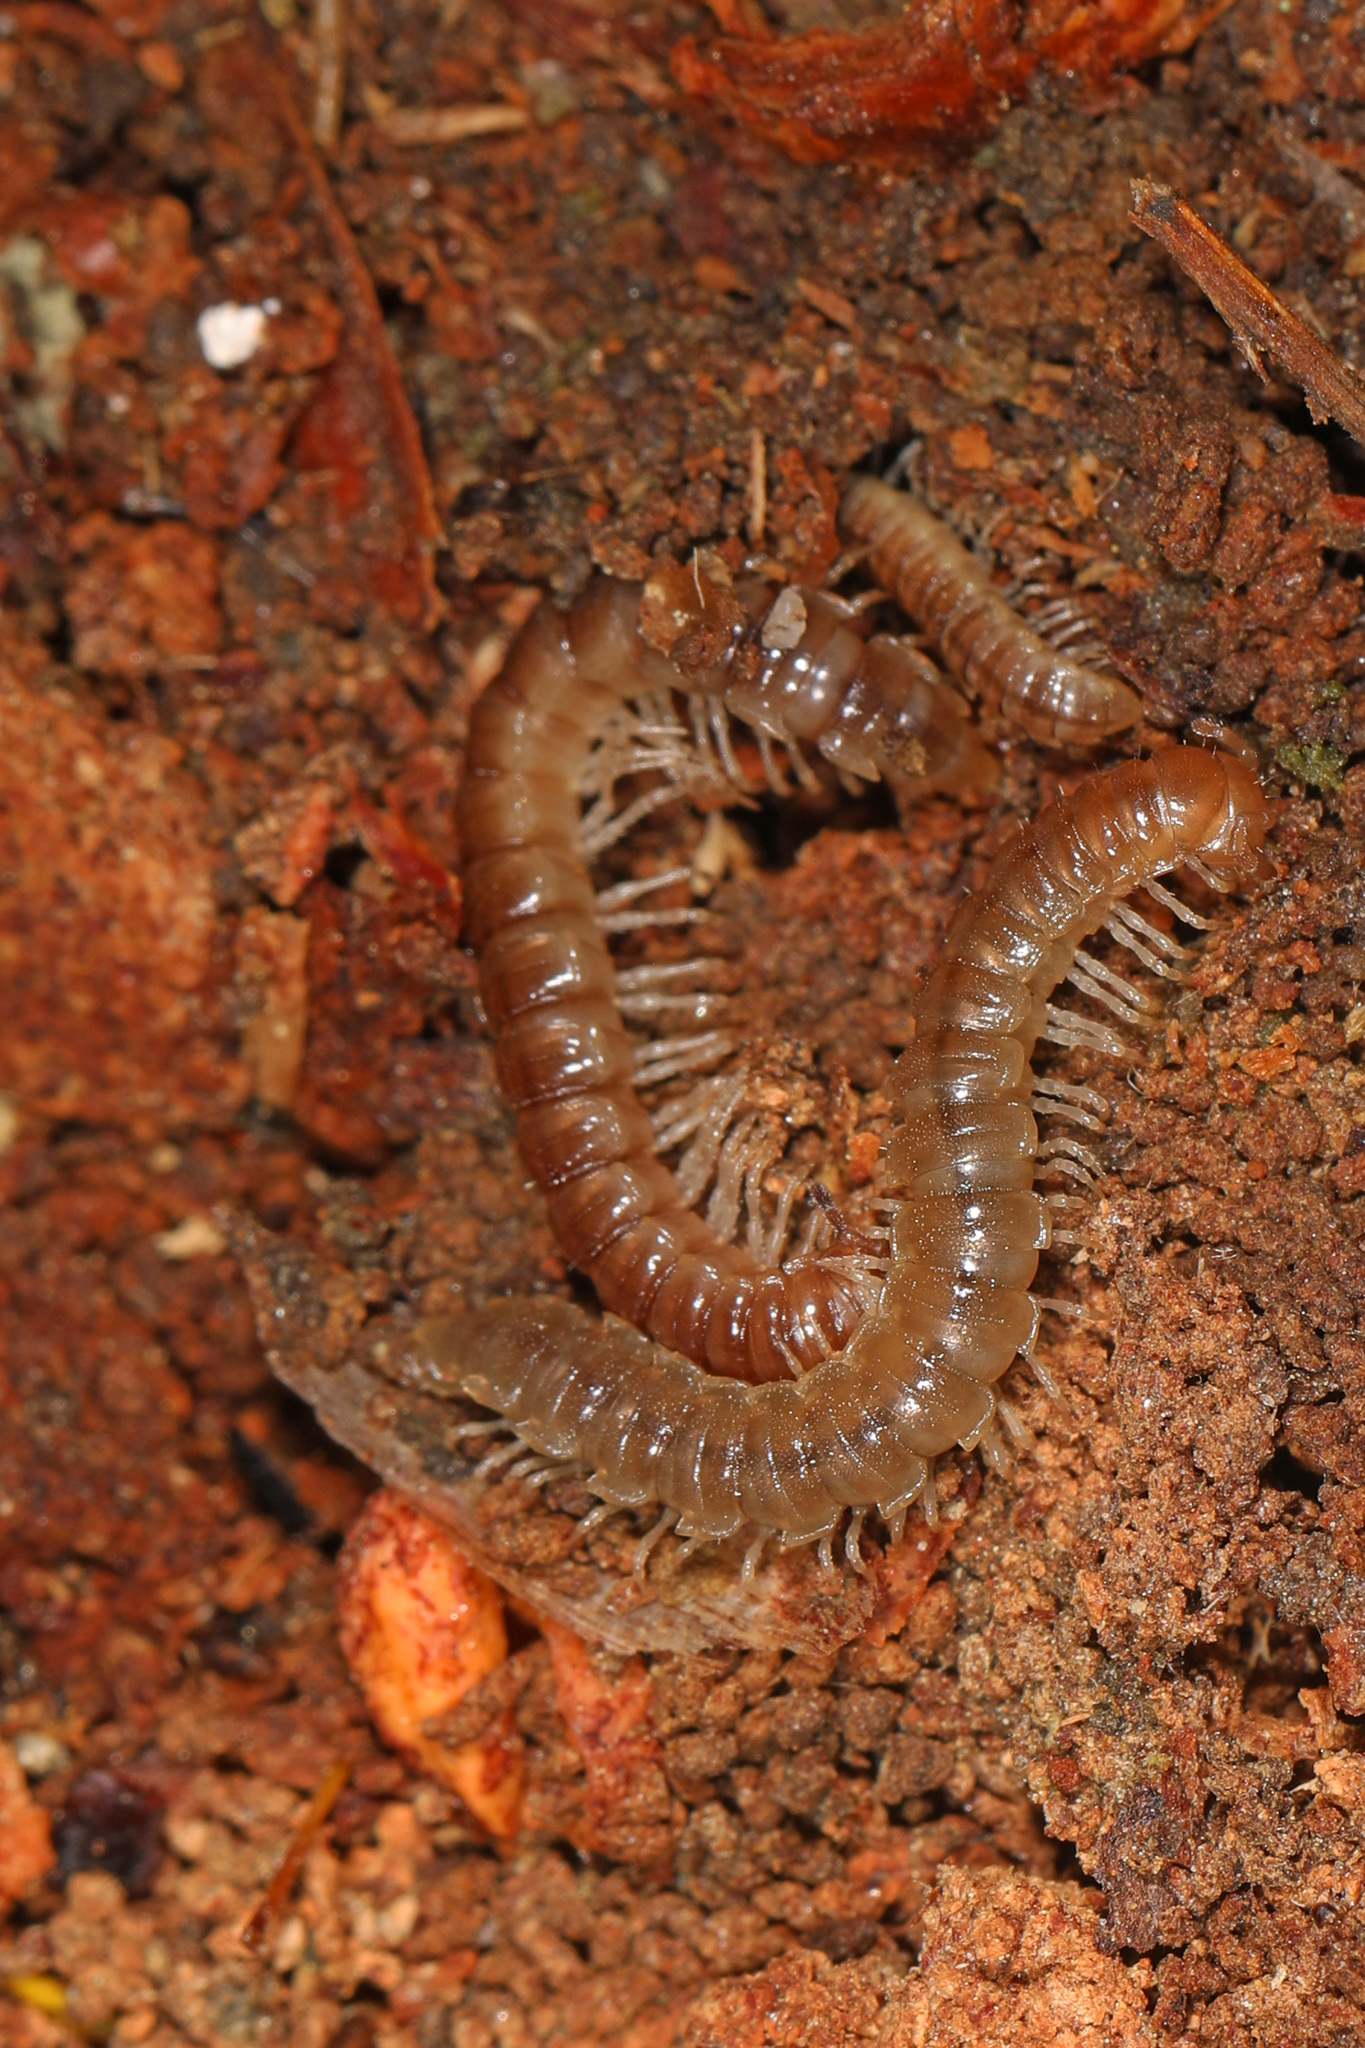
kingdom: Animalia
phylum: Arthropoda
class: Diplopoda
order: Polydesmida
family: Paradoxosomatidae
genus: Oxidus
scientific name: Oxidus gracilis
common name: Greenhouse millipede
